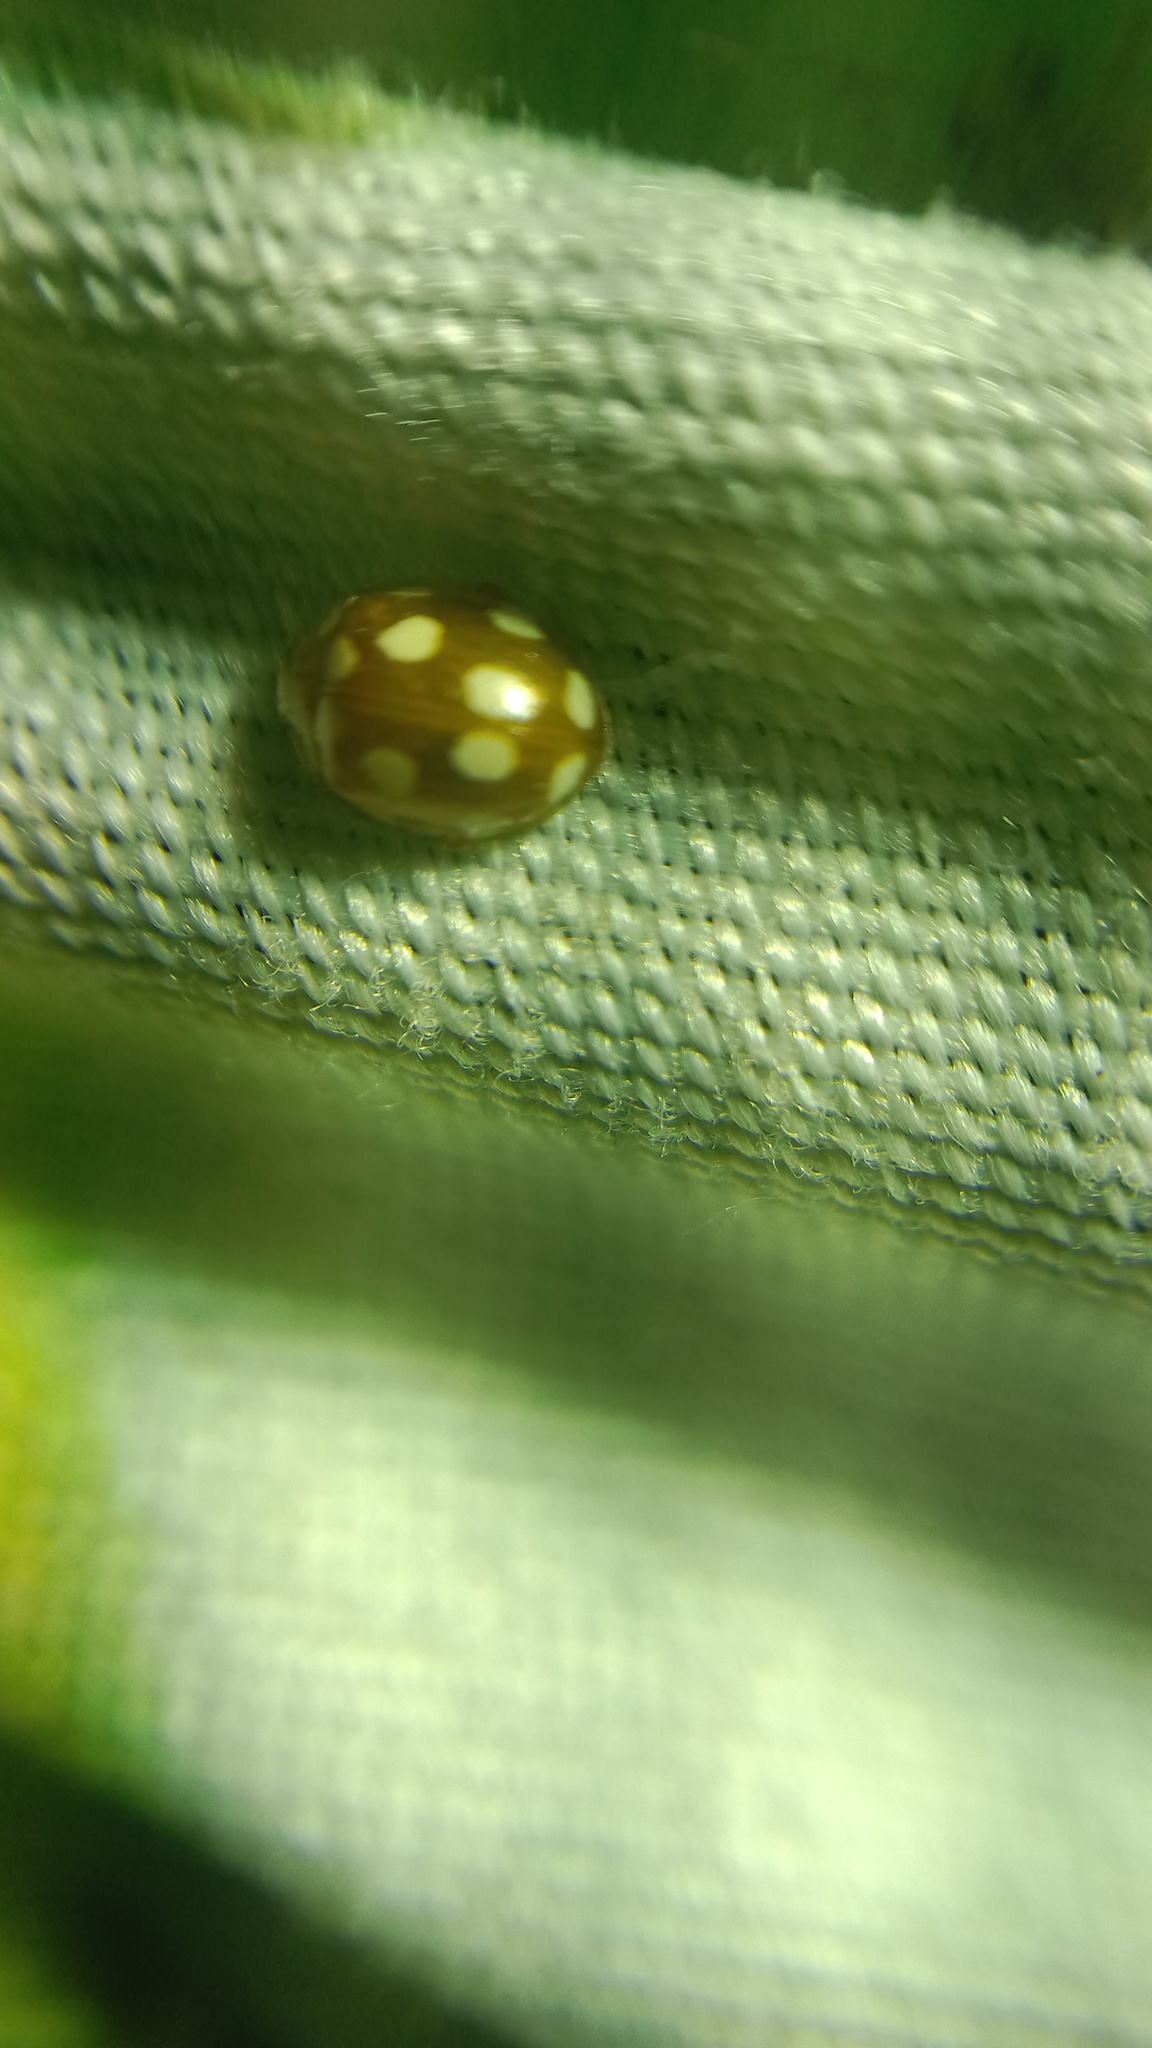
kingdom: Animalia
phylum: Arthropoda
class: Insecta
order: Coleoptera
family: Coccinellidae
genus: Vibidia
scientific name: Vibidia duodecimguttata
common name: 12-spot ladybird
